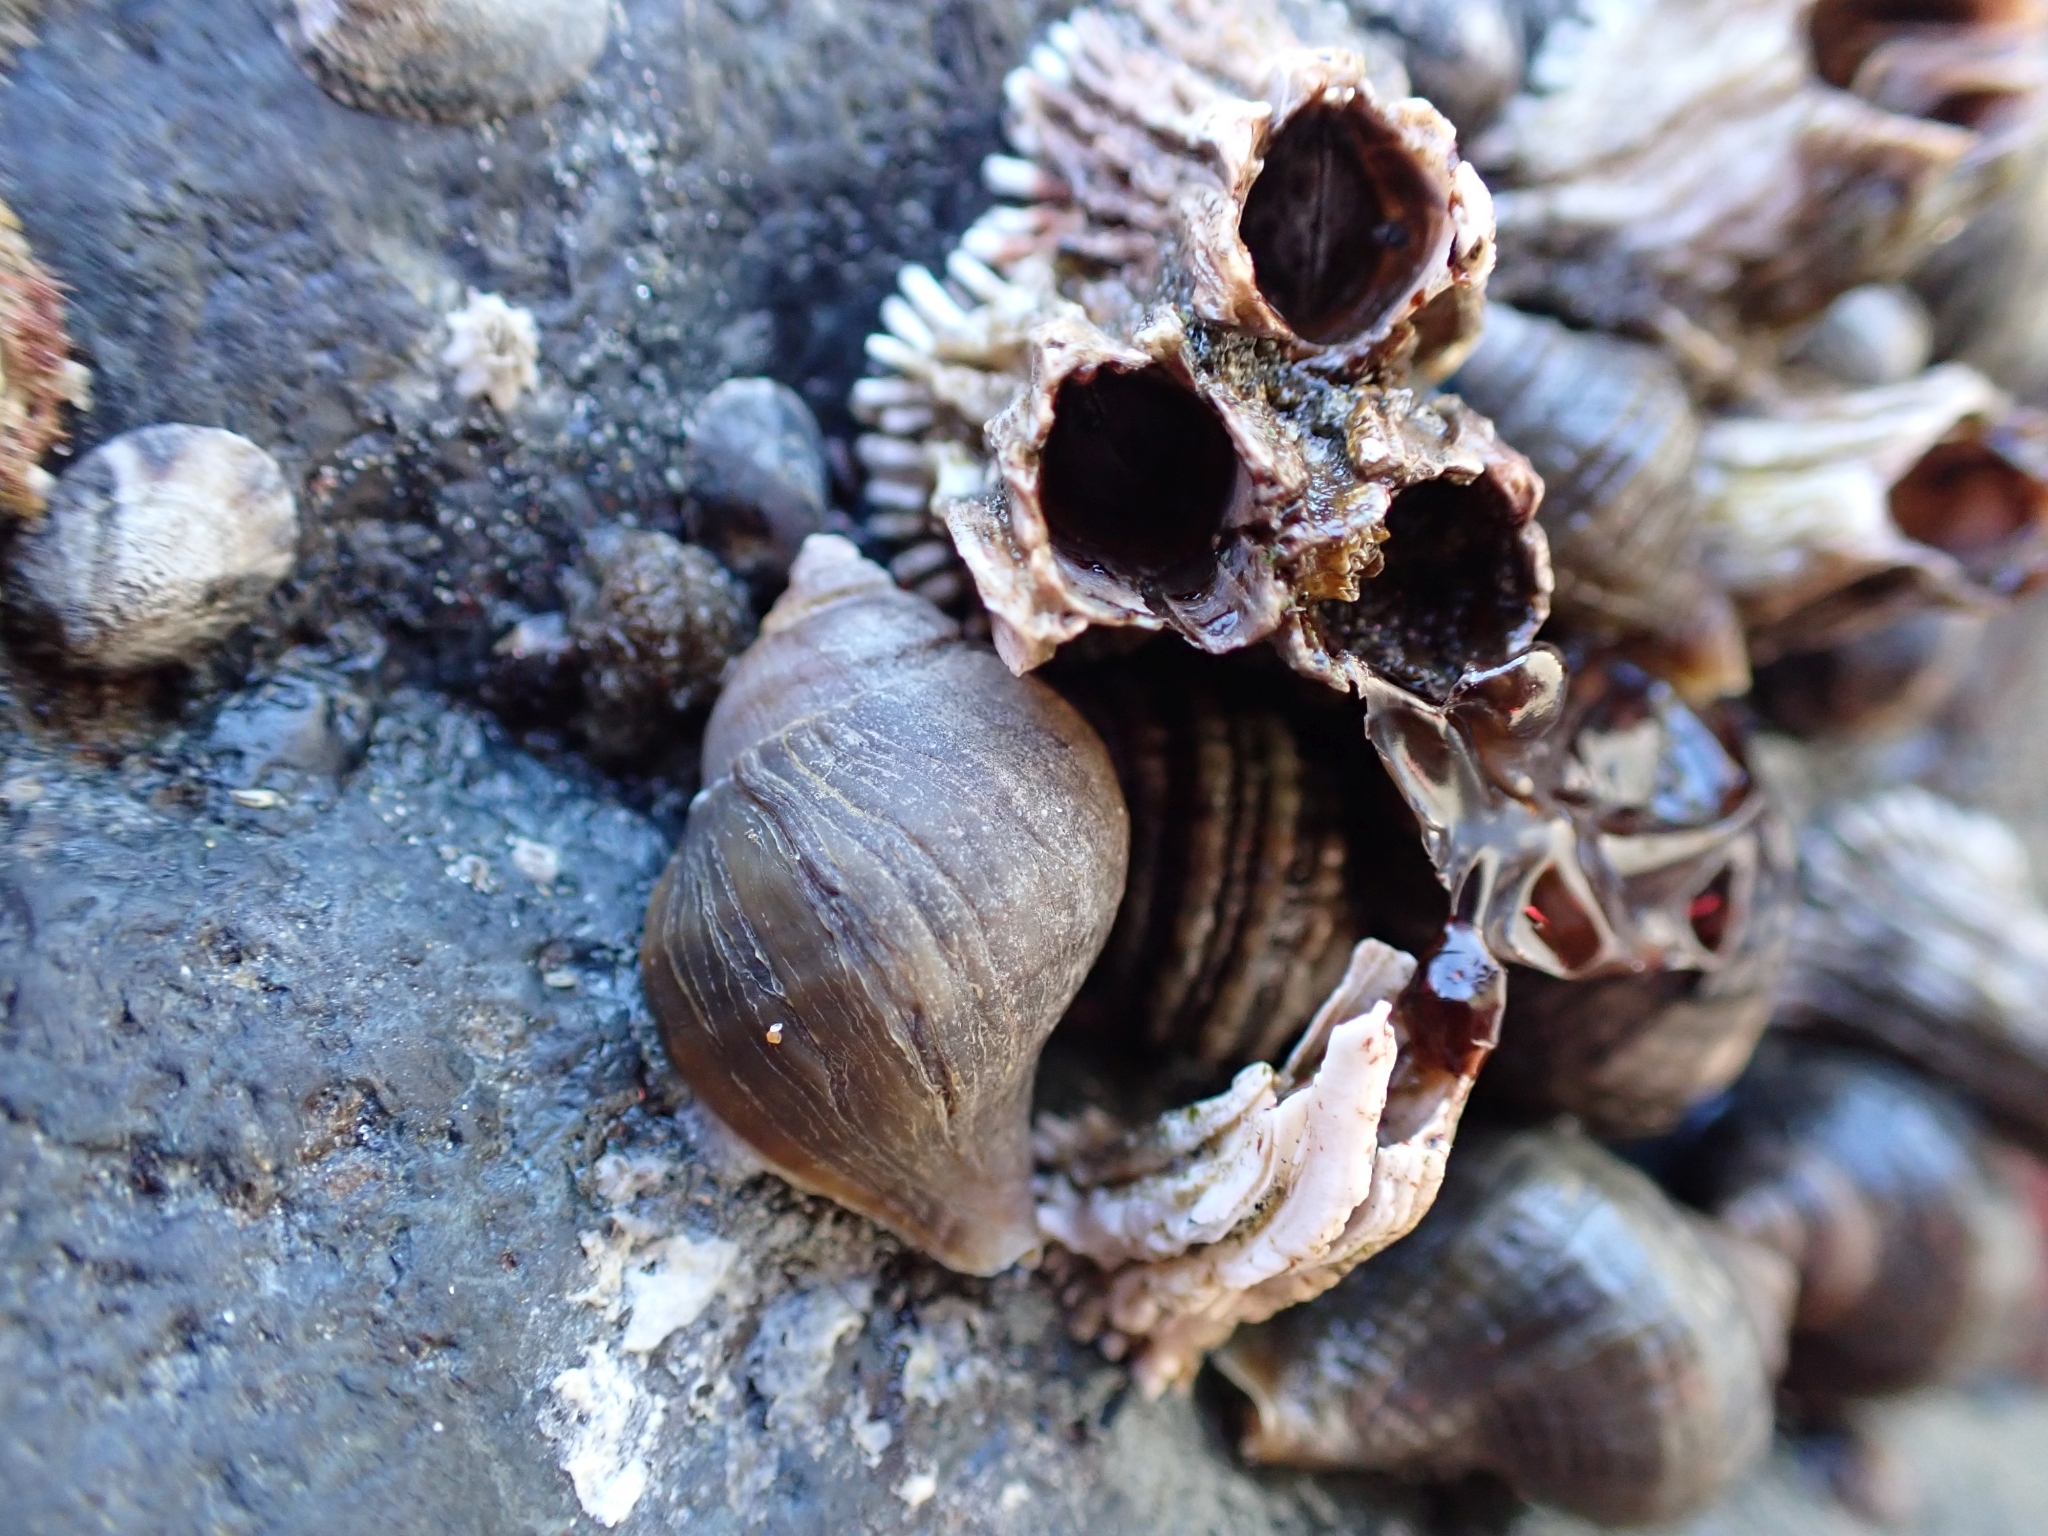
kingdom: Animalia
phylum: Mollusca
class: Gastropoda
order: Neogastropoda
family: Muricidae
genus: Nucella
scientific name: Nucella lamellosa
